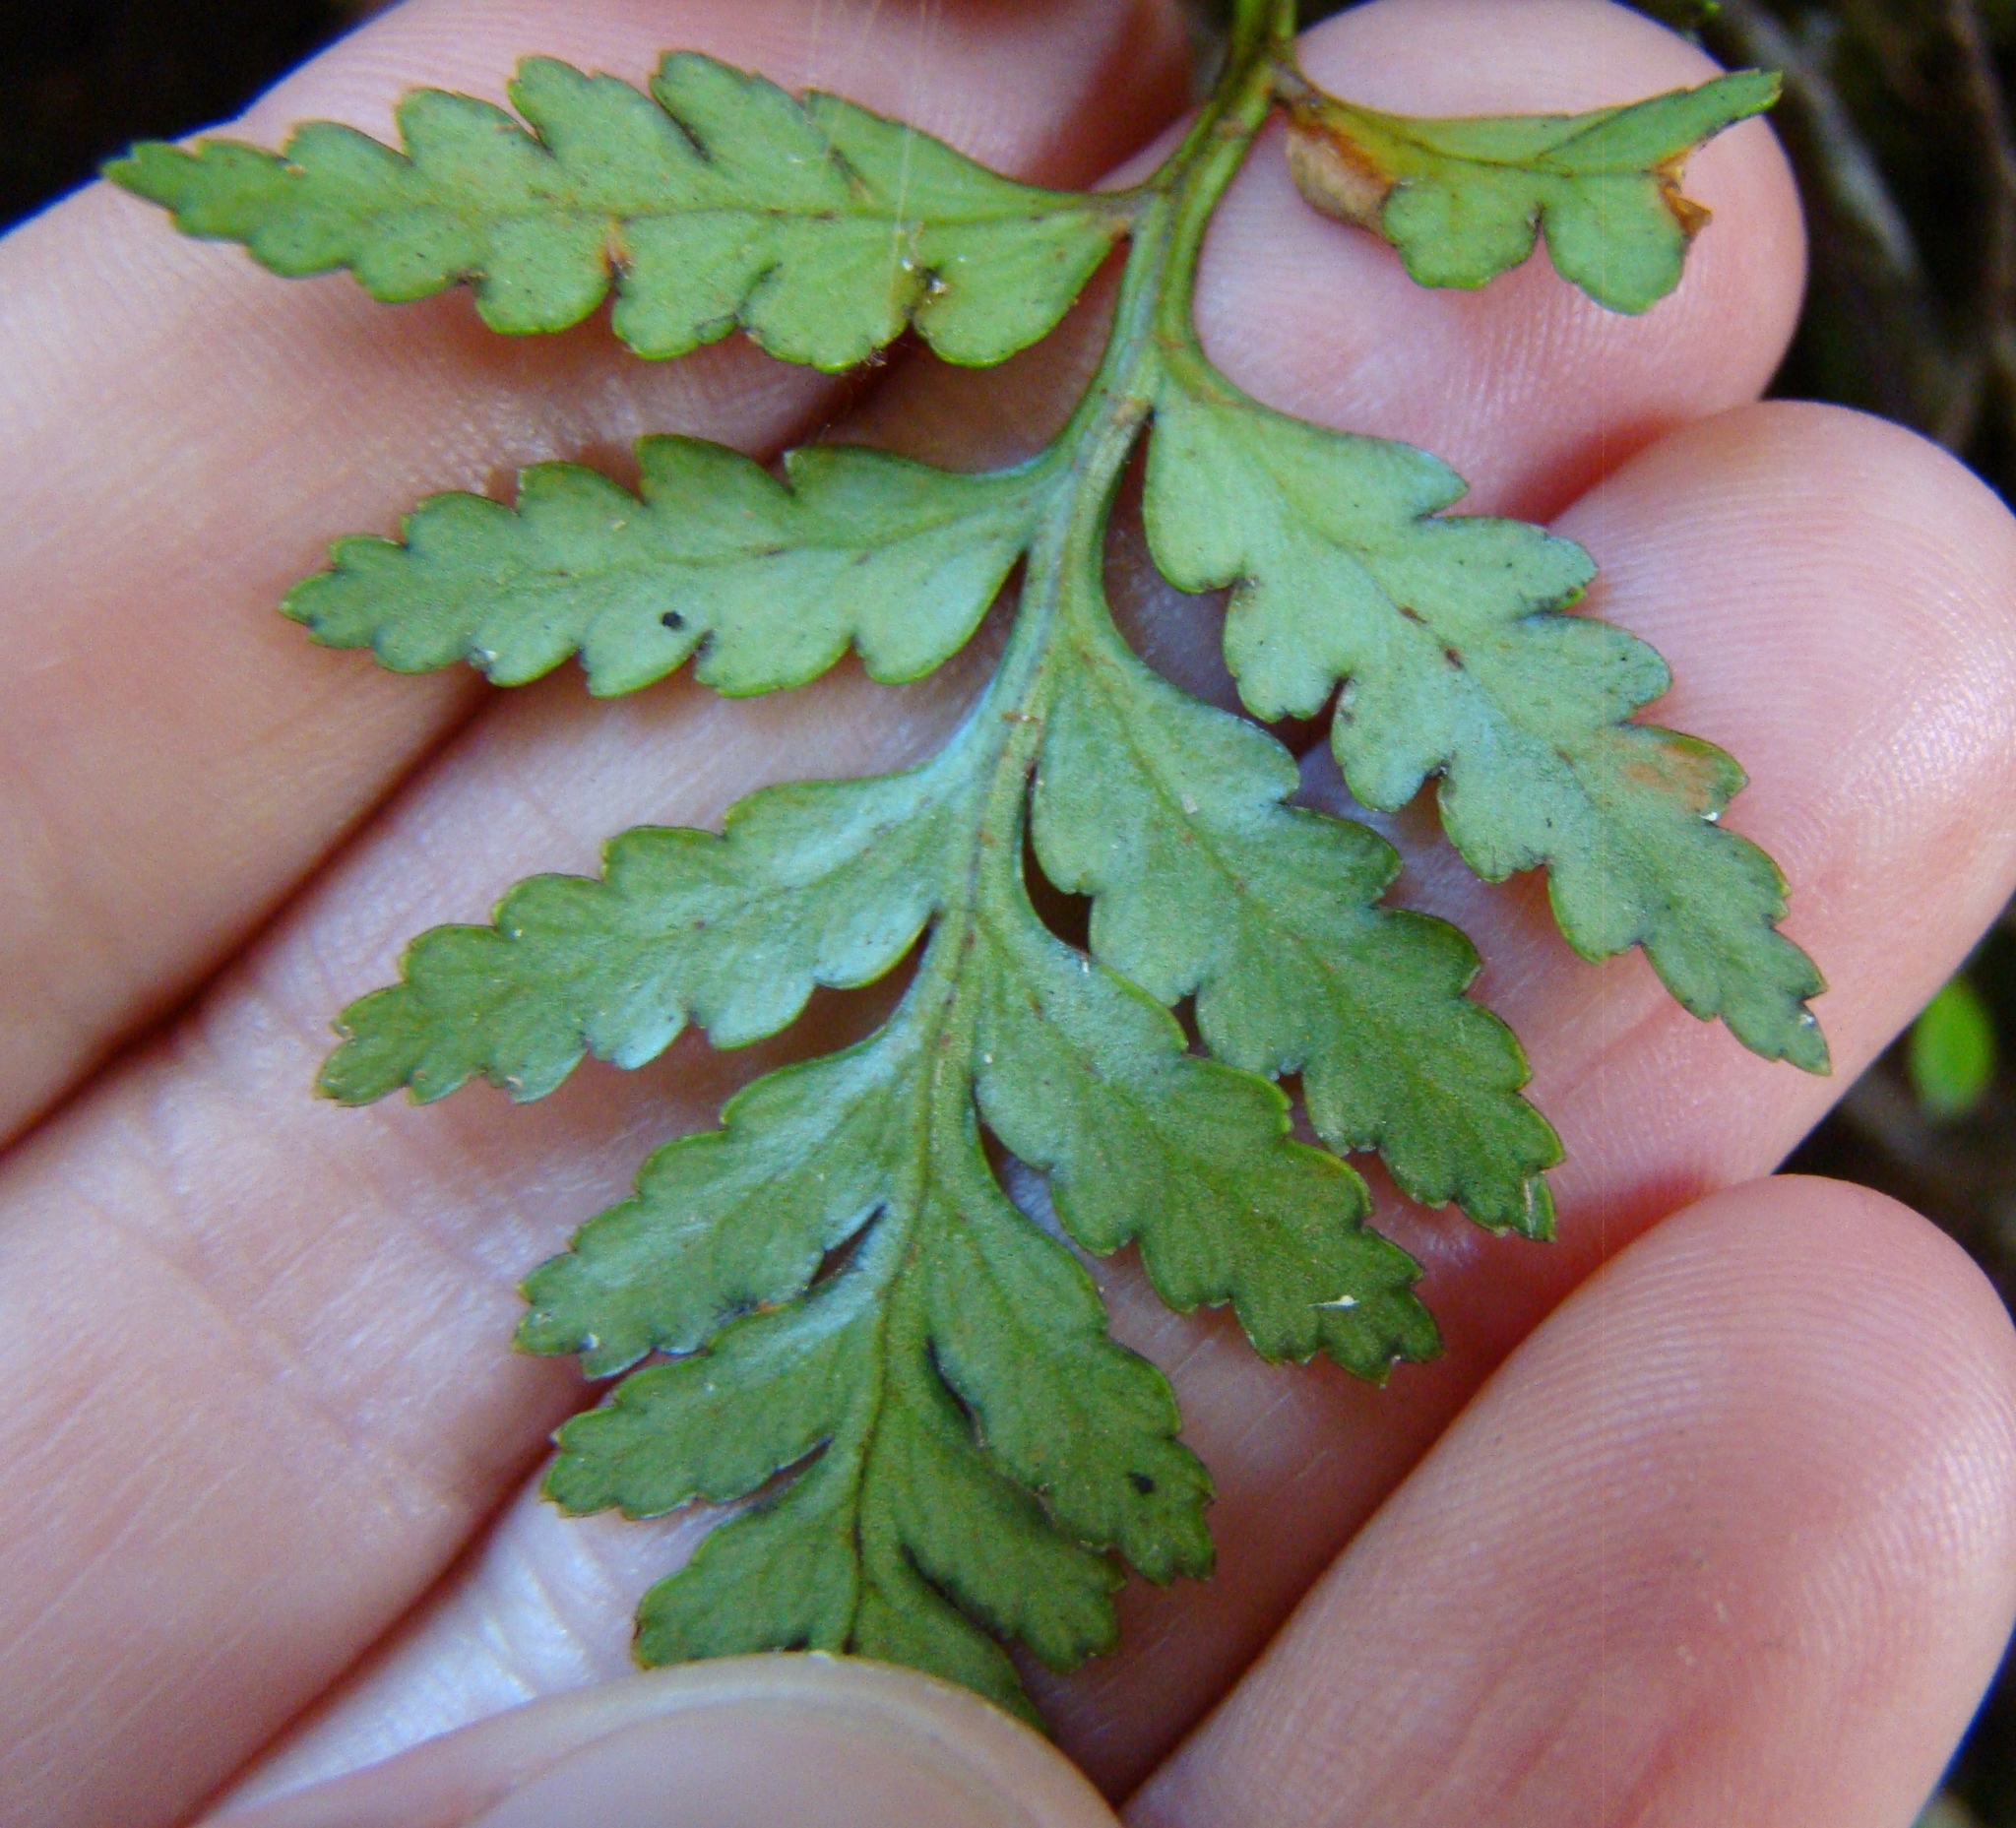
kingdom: Plantae
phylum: Tracheophyta
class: Polypodiopsida
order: Polypodiales
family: Dryopteridaceae
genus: Rumohra
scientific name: Rumohra adiantiformis
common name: Leather fern
